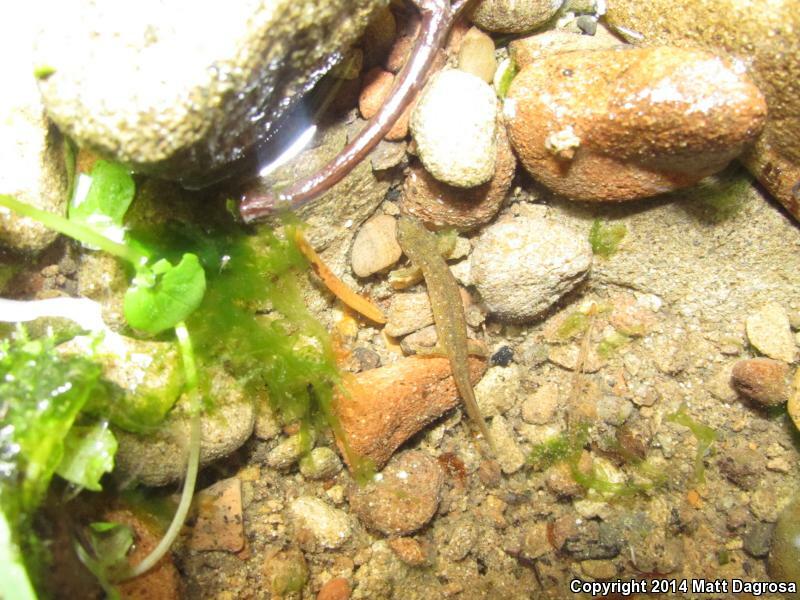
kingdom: Animalia
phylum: Chordata
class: Amphibia
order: Caudata
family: Rhyacotritonidae
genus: Rhyacotriton
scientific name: Rhyacotriton variegatus
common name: Southern torrent salamander
